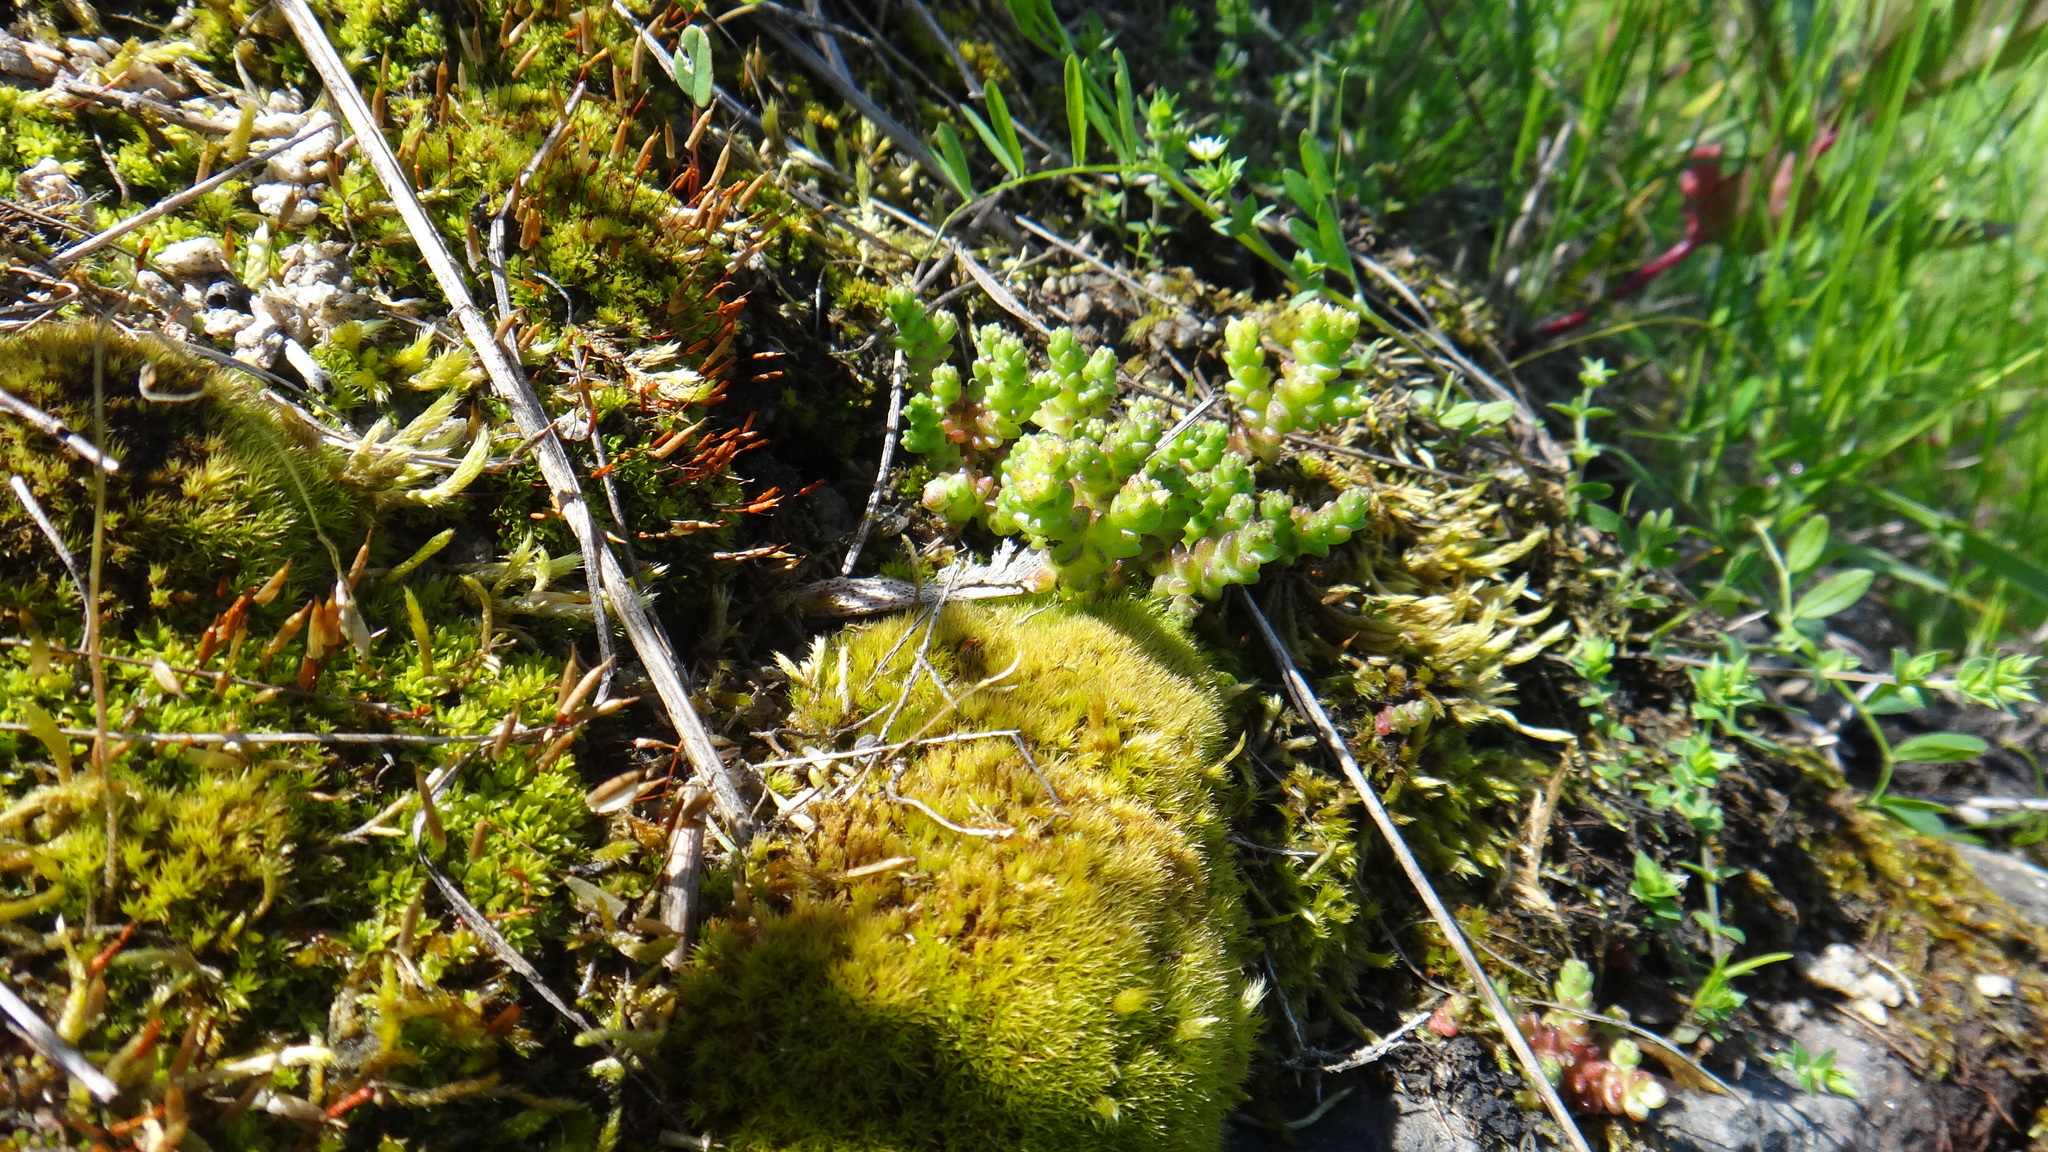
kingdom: Plantae
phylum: Bryophyta
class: Bryopsida
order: Encalyptales
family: Encalyptaceae
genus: Encalypta
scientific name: Encalypta
